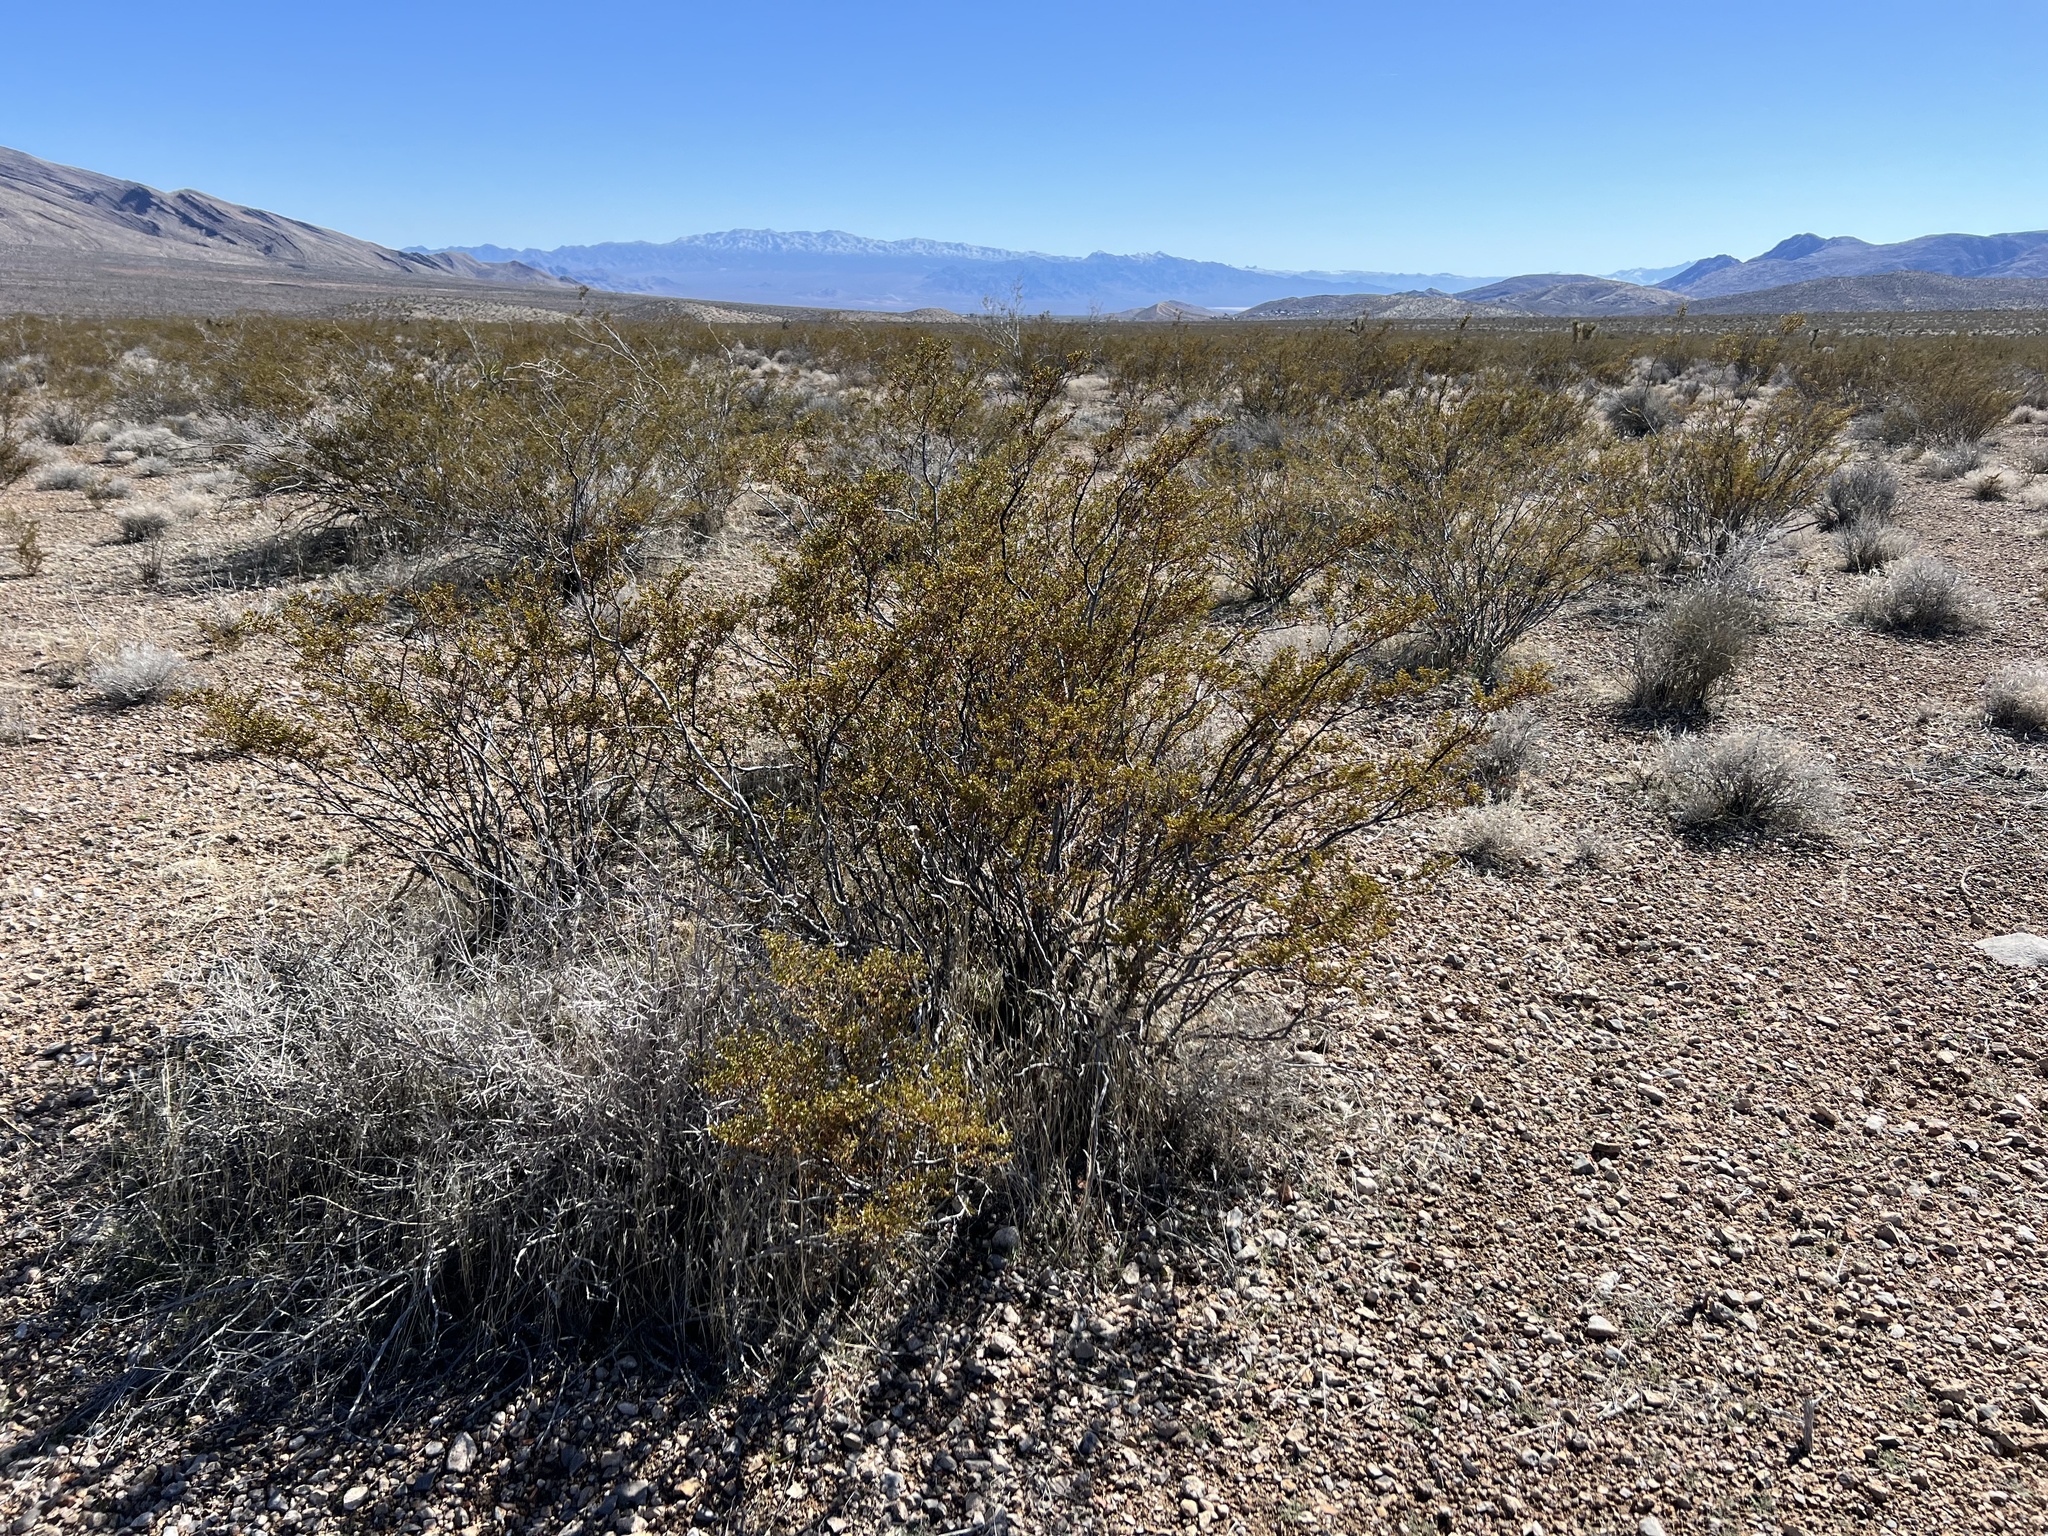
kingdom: Plantae
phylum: Tracheophyta
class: Magnoliopsida
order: Zygophyllales
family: Zygophyllaceae
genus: Larrea
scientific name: Larrea tridentata
